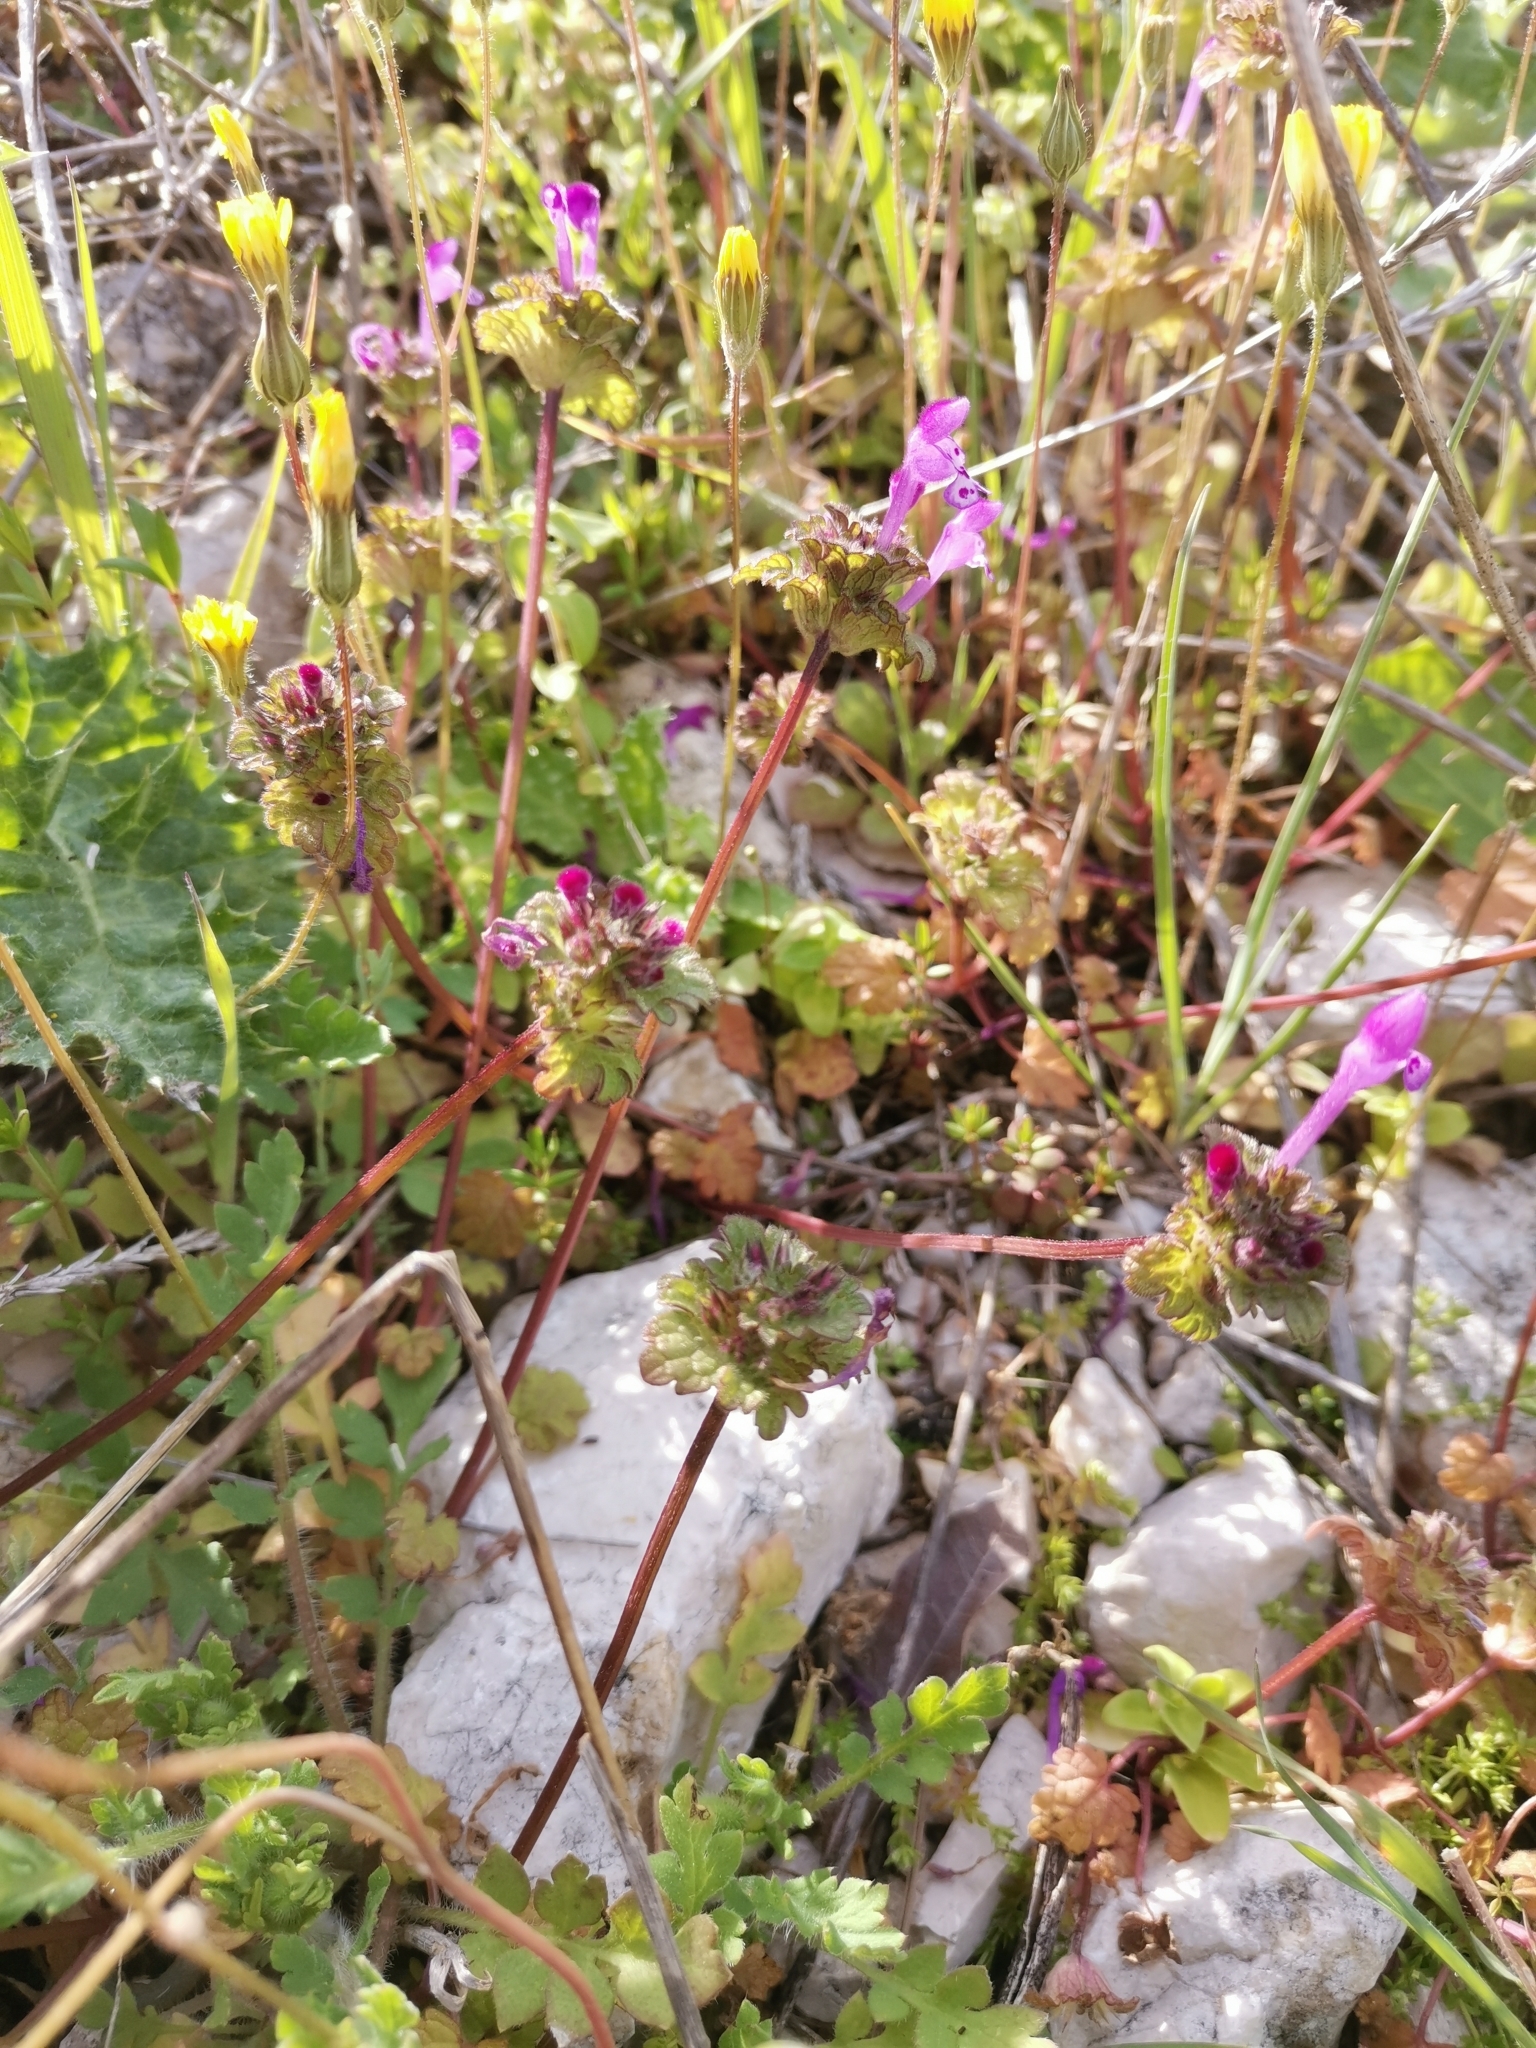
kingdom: Plantae
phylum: Tracheophyta
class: Magnoliopsida
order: Lamiales
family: Lamiaceae
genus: Lamium
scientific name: Lamium amplexicaule
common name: Henbit dead-nettle
